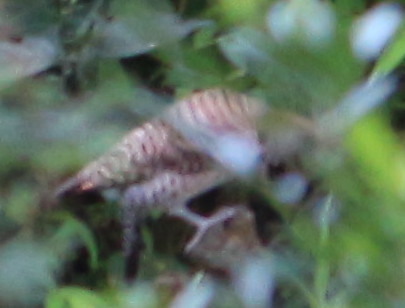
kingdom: Animalia
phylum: Chordata
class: Aves
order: Piciformes
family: Picidae
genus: Colaptes
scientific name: Colaptes auratus
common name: Northern flicker
